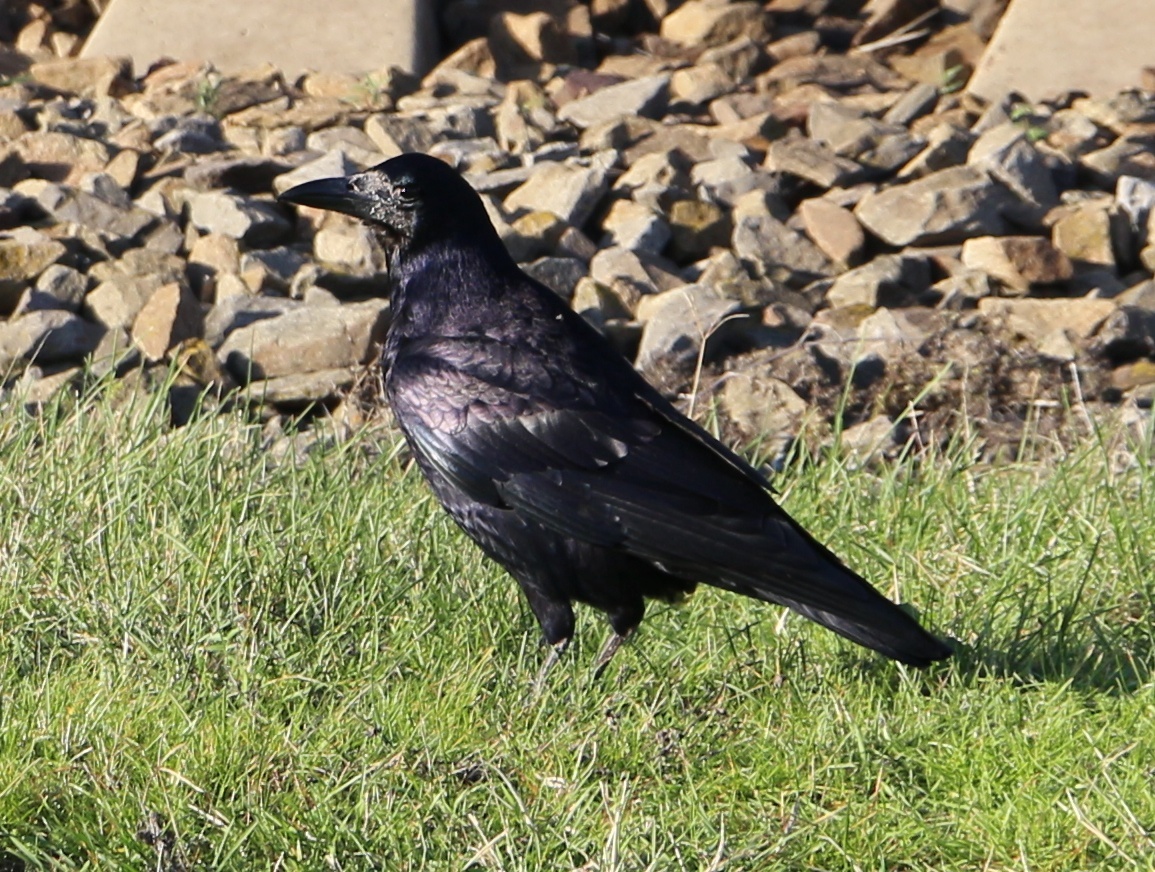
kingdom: Animalia
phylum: Chordata
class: Aves
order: Passeriformes
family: Corvidae
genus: Corvus
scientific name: Corvus frugilegus
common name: Rook
